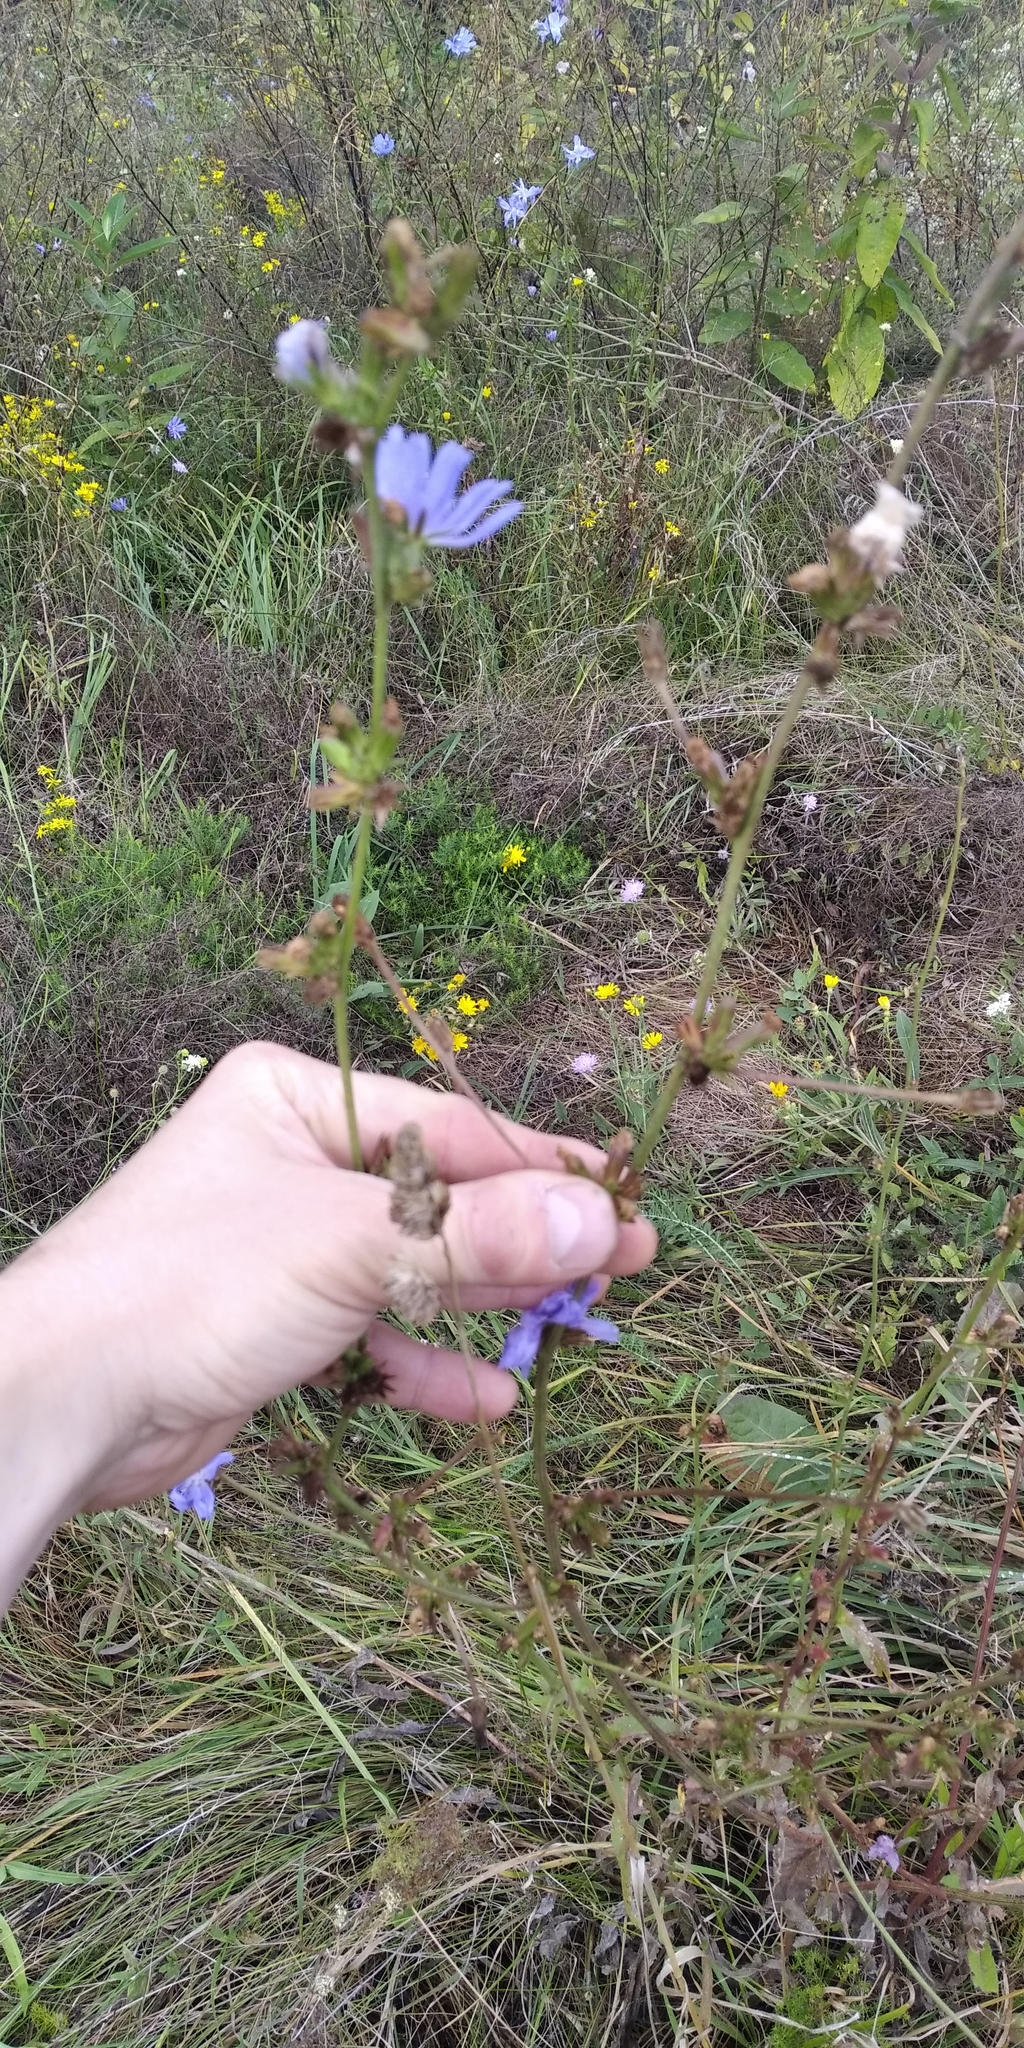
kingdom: Plantae
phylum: Tracheophyta
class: Magnoliopsida
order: Asterales
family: Asteraceae
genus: Cichorium
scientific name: Cichorium intybus
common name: Chicory
